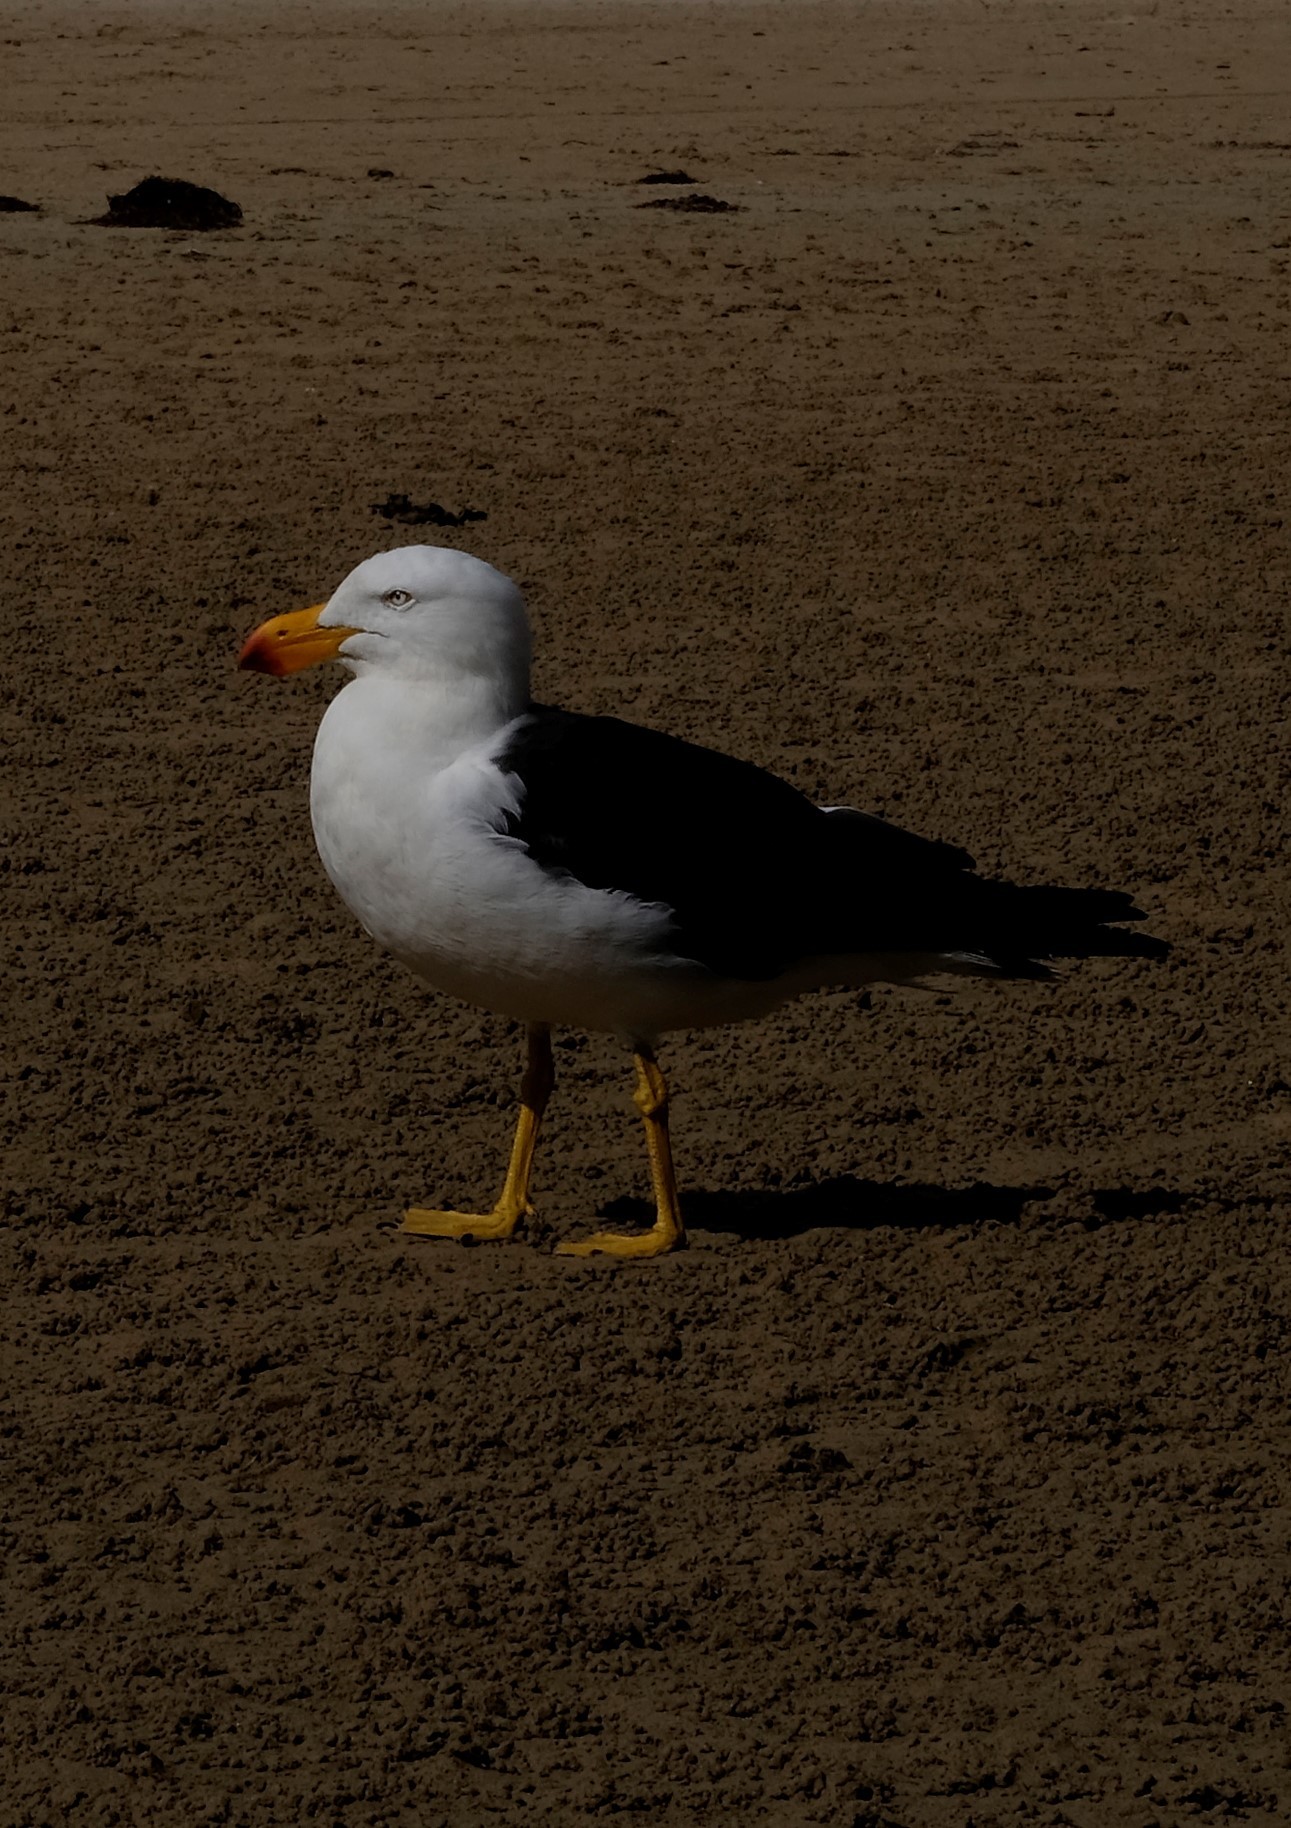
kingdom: Animalia
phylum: Chordata
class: Aves
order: Charadriiformes
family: Laridae
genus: Larus
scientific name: Larus pacificus
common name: Pacific gull
